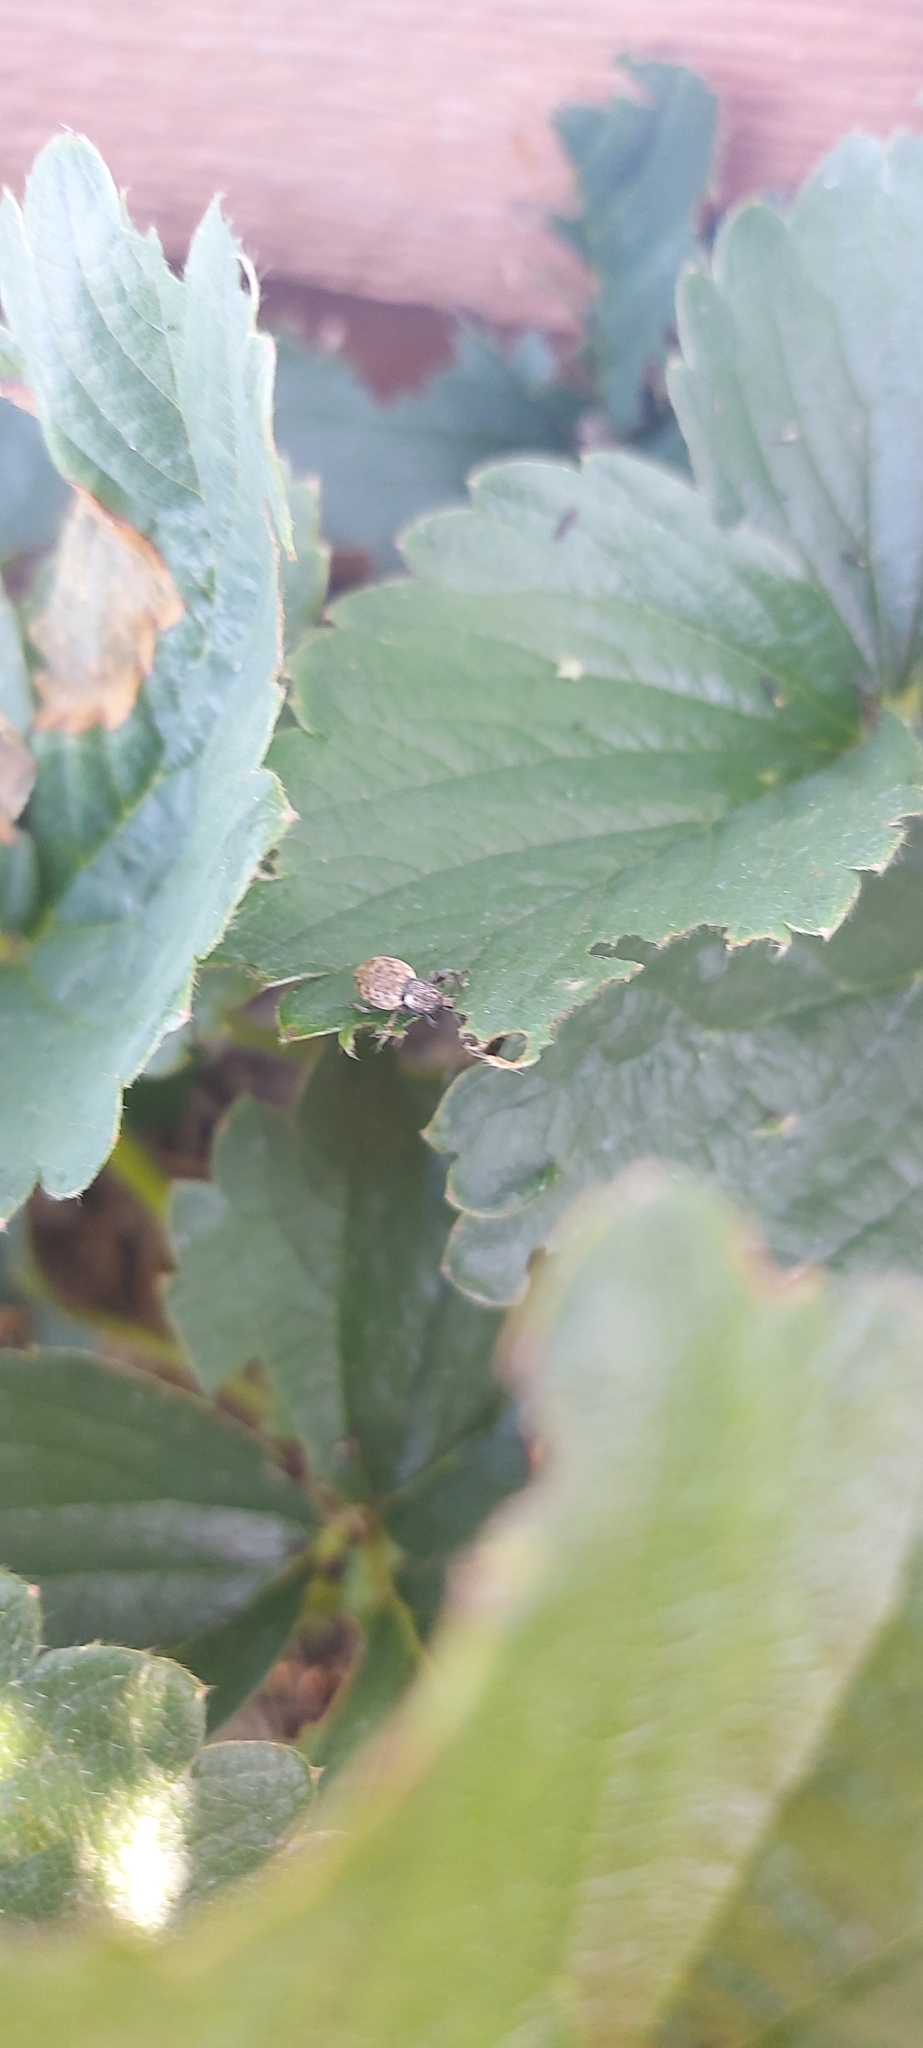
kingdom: Animalia
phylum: Arthropoda
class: Insecta
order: Coleoptera
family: Curculionidae
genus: Otiorhynchus
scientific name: Otiorhynchus raucus
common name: Weevil
